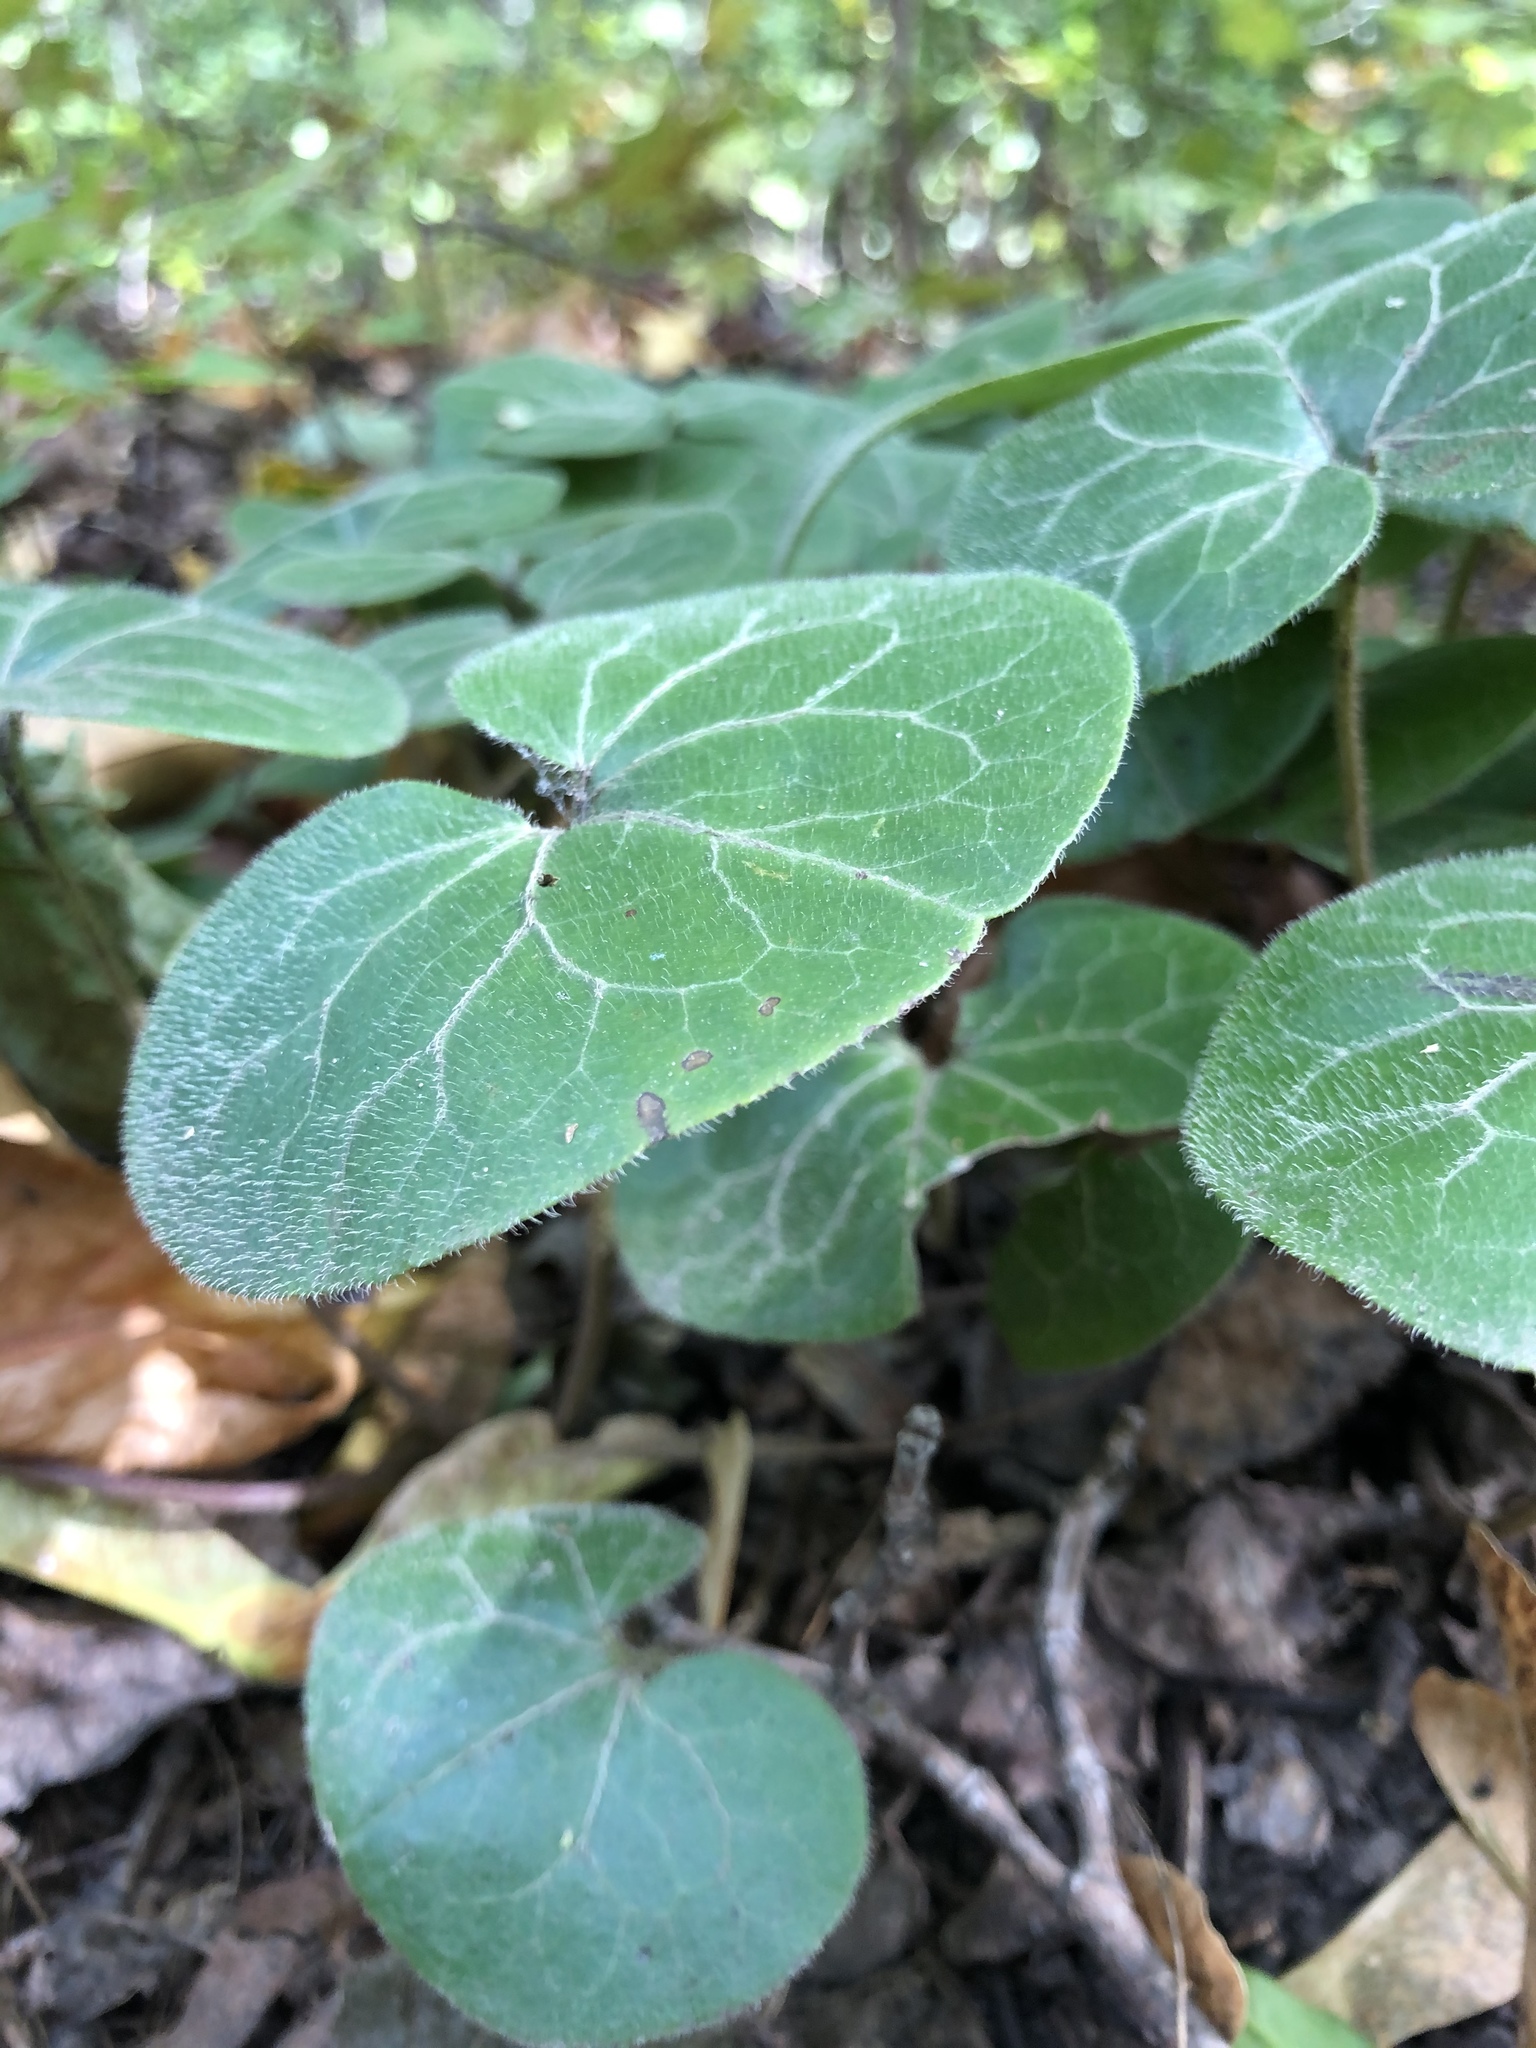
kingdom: Plantae
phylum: Tracheophyta
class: Magnoliopsida
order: Piperales
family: Aristolochiaceae
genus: Asarum
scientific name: Asarum europaeum
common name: Asarabacca
